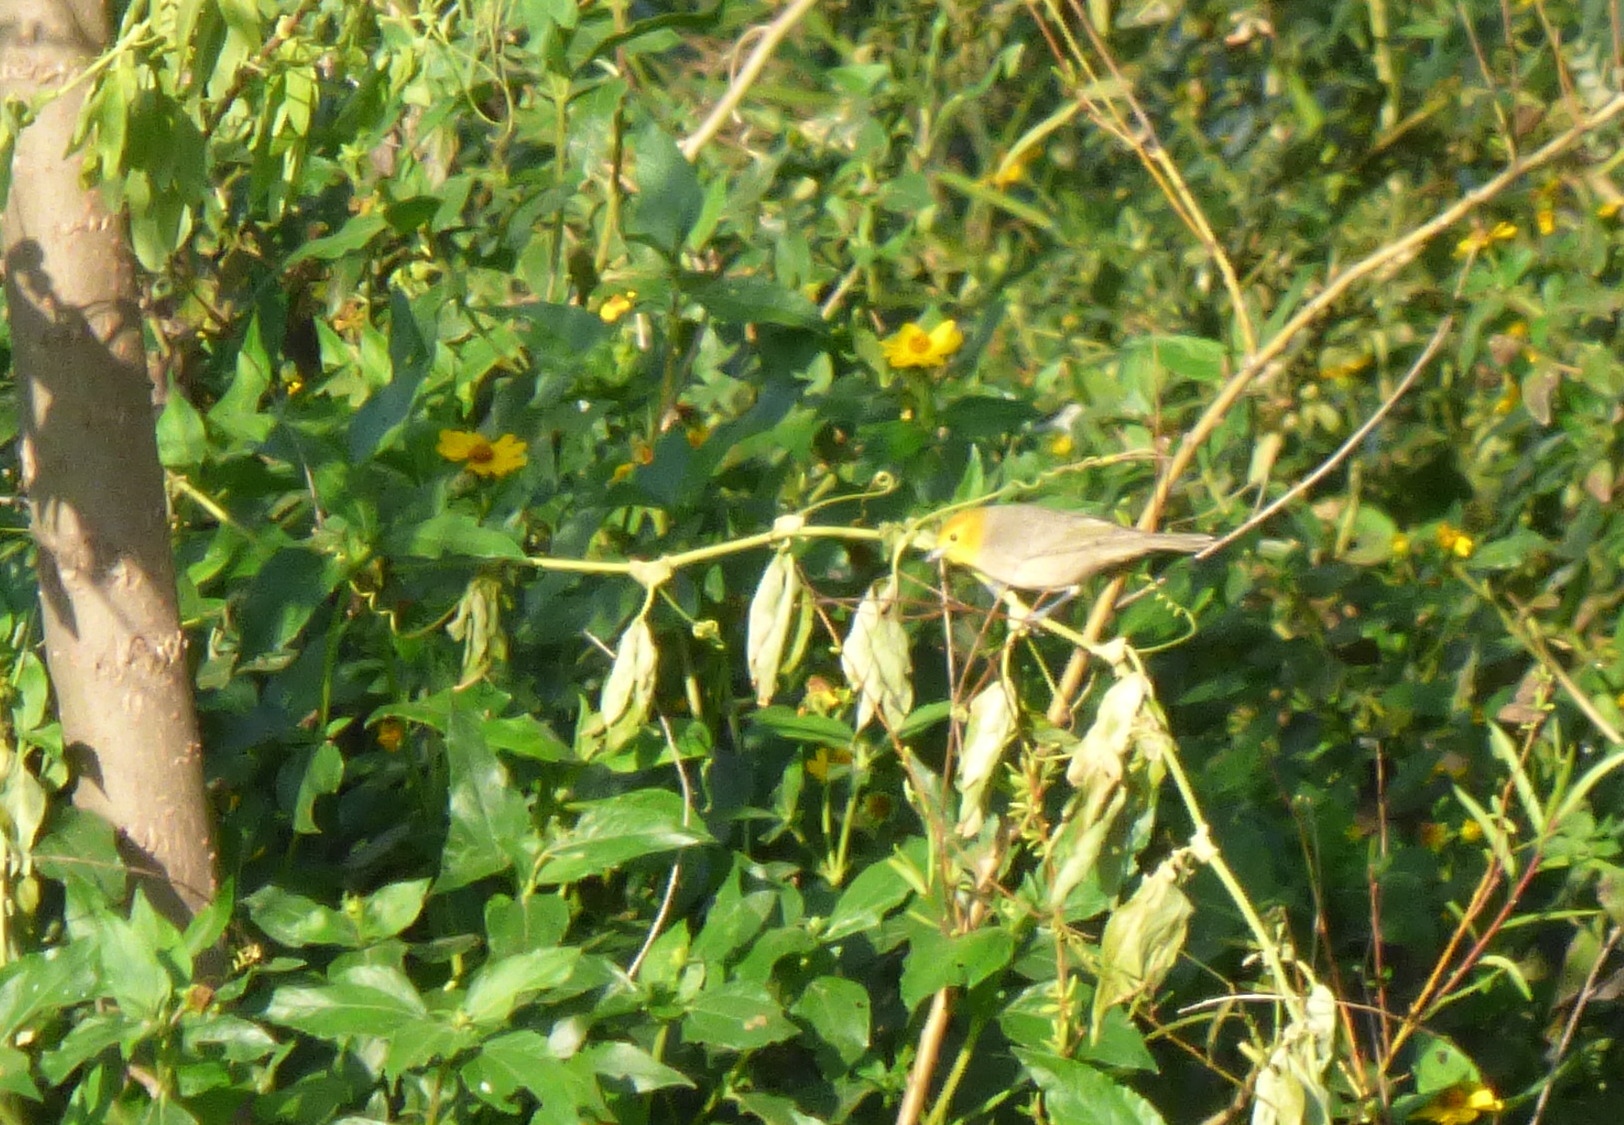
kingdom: Animalia
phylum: Chordata
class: Aves
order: Passeriformes
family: Thraupidae
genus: Thlypopsis
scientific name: Thlypopsis sordida
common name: Orange-headed tanager
